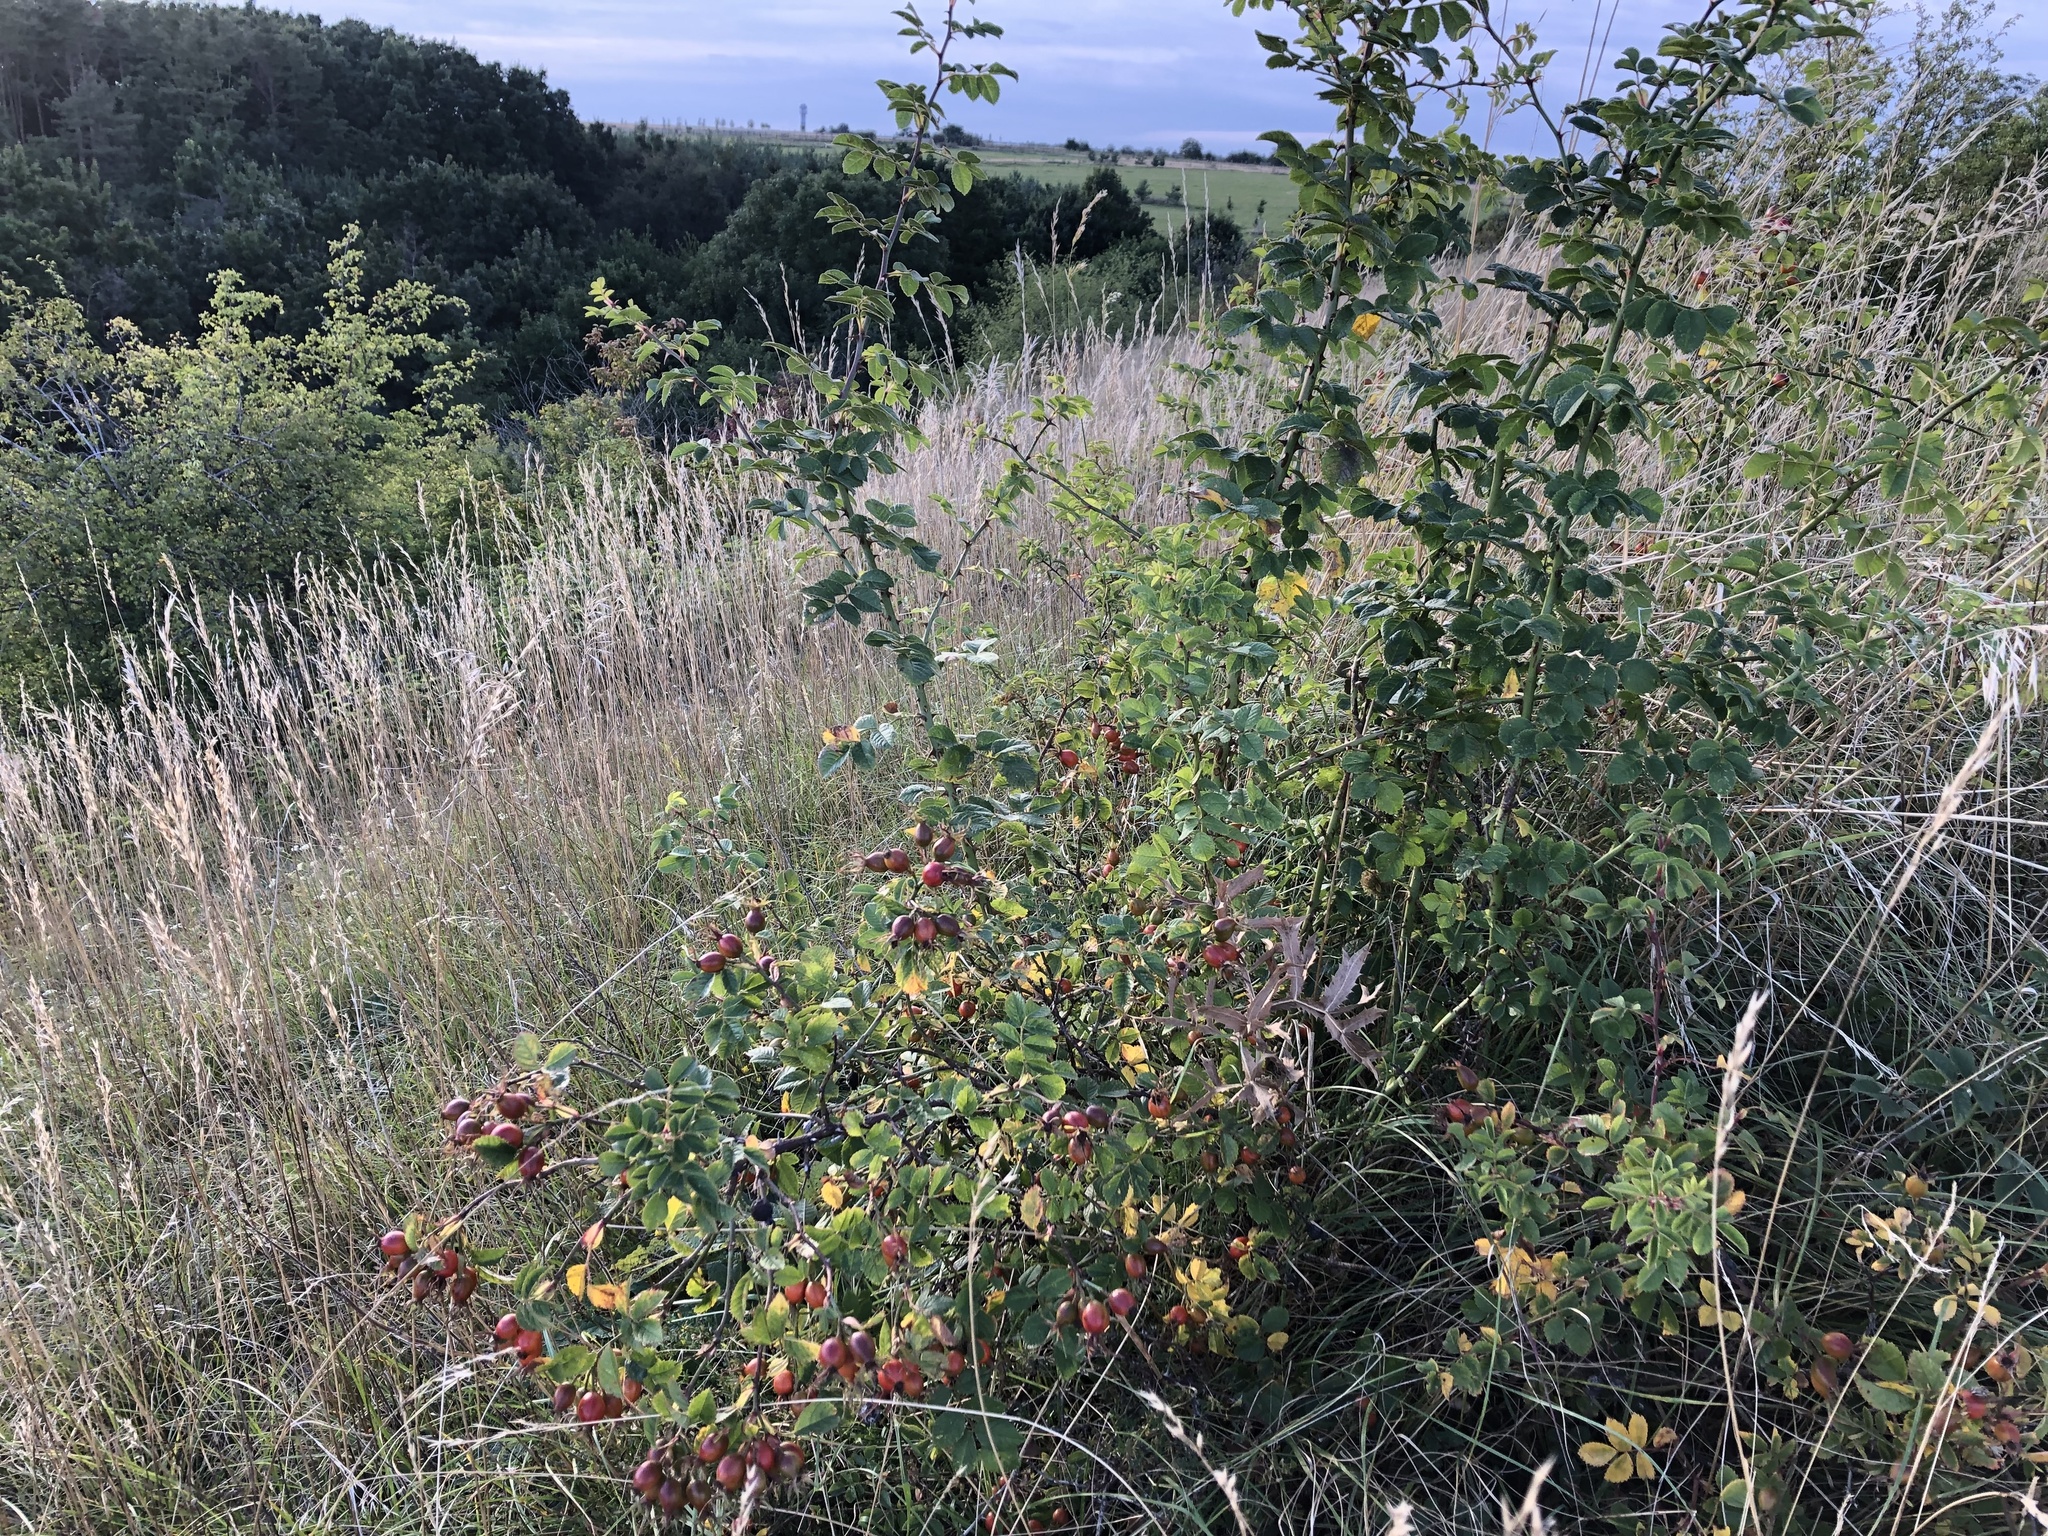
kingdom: Plantae
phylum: Tracheophyta
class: Magnoliopsida
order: Rosales
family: Rosaceae
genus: Rosa
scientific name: Rosa rubiginosa
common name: Sweet-briar
